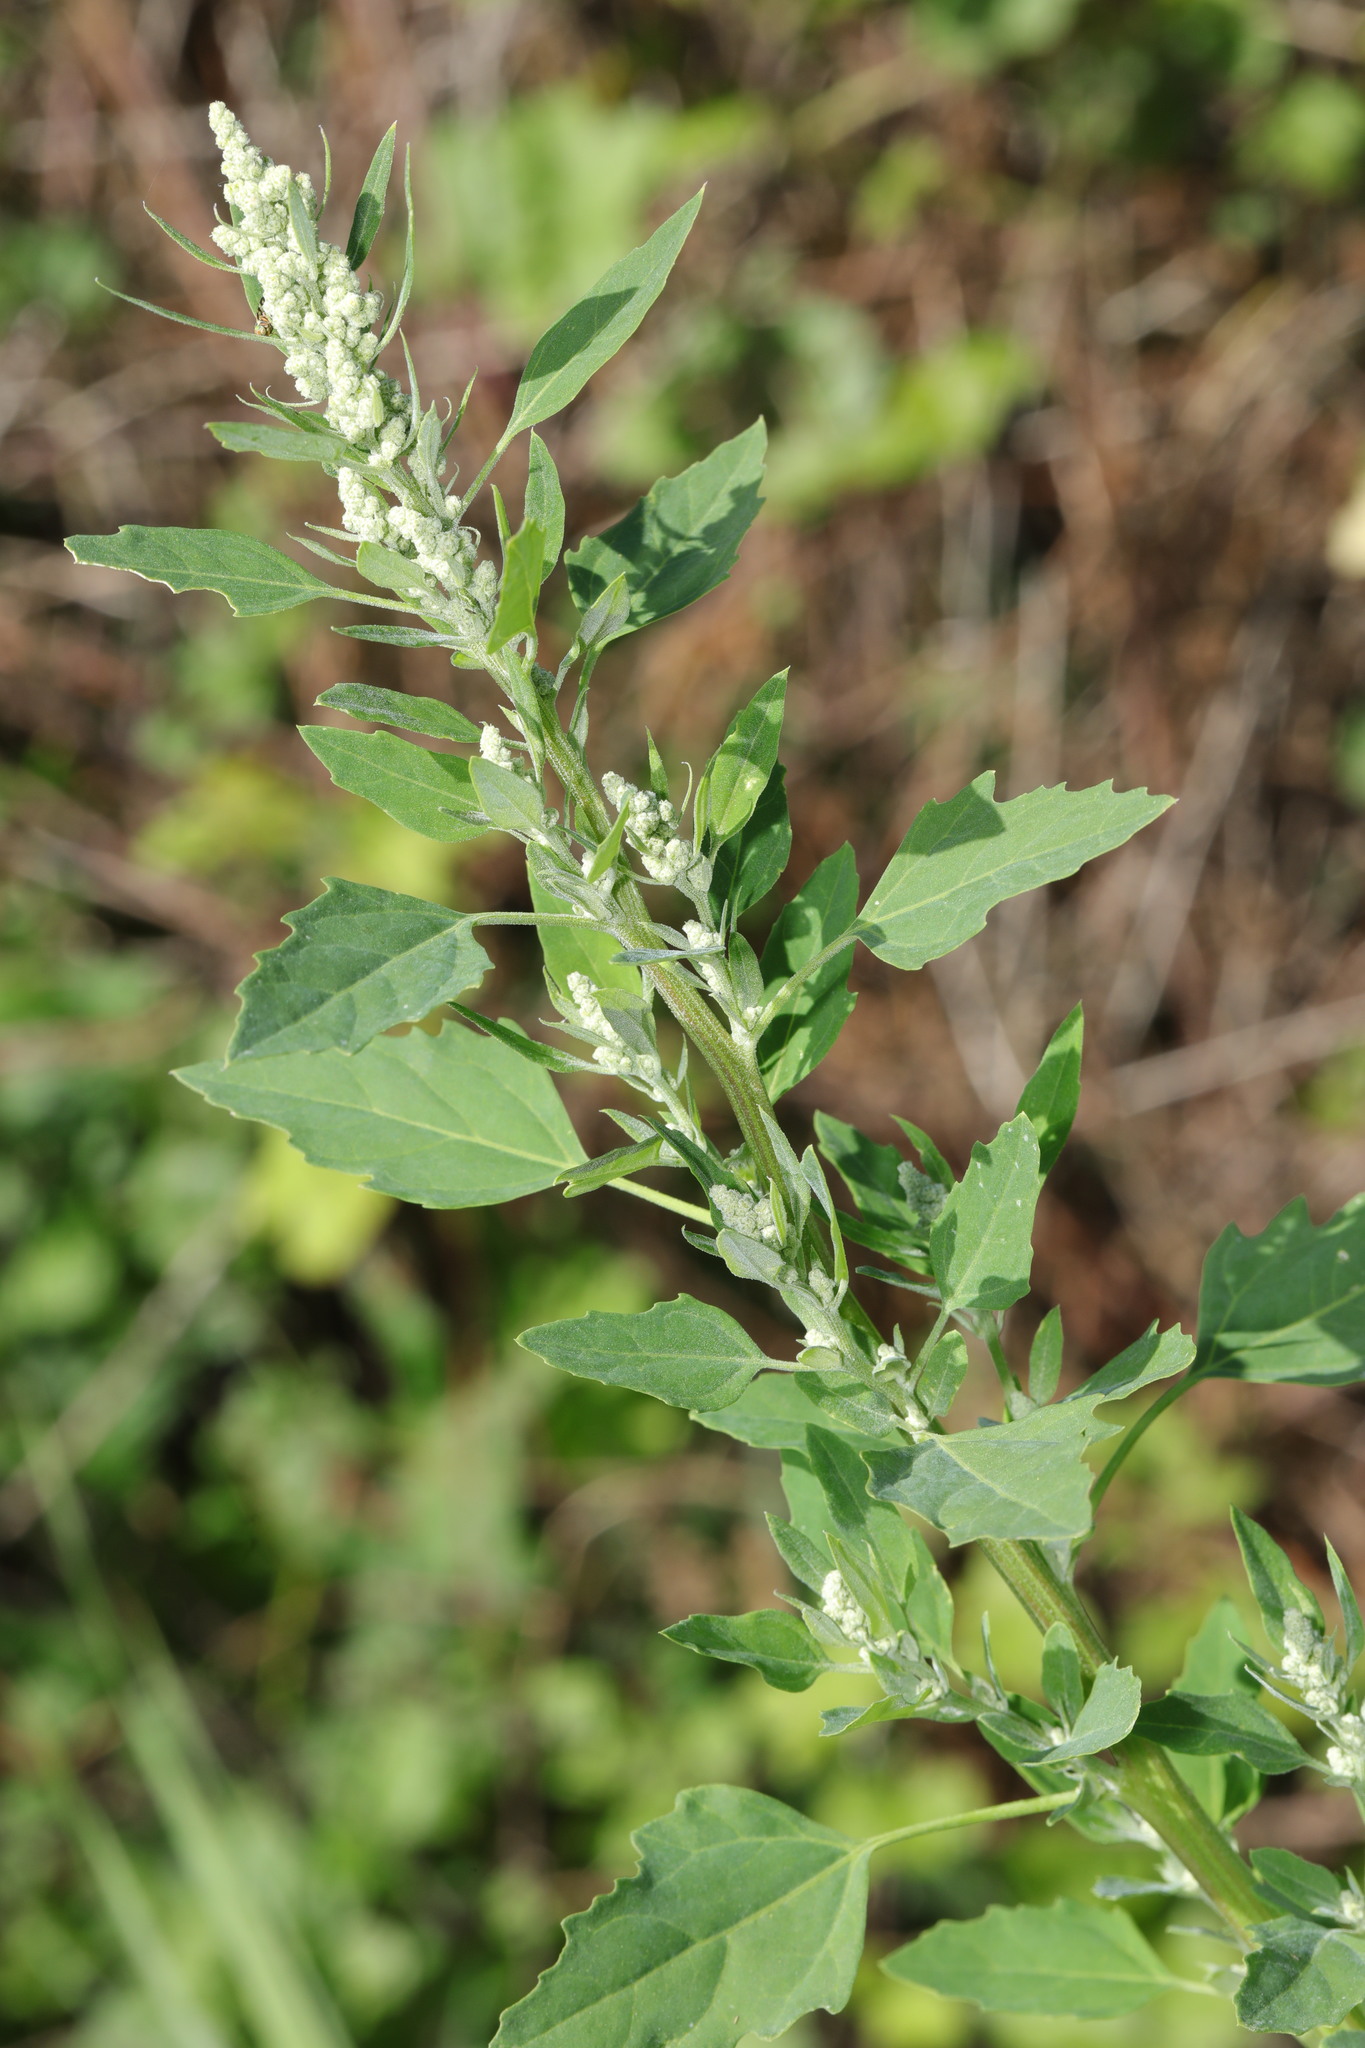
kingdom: Plantae
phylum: Tracheophyta
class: Magnoliopsida
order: Caryophyllales
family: Amaranthaceae
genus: Chenopodium
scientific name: Chenopodium album
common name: Fat-hen
